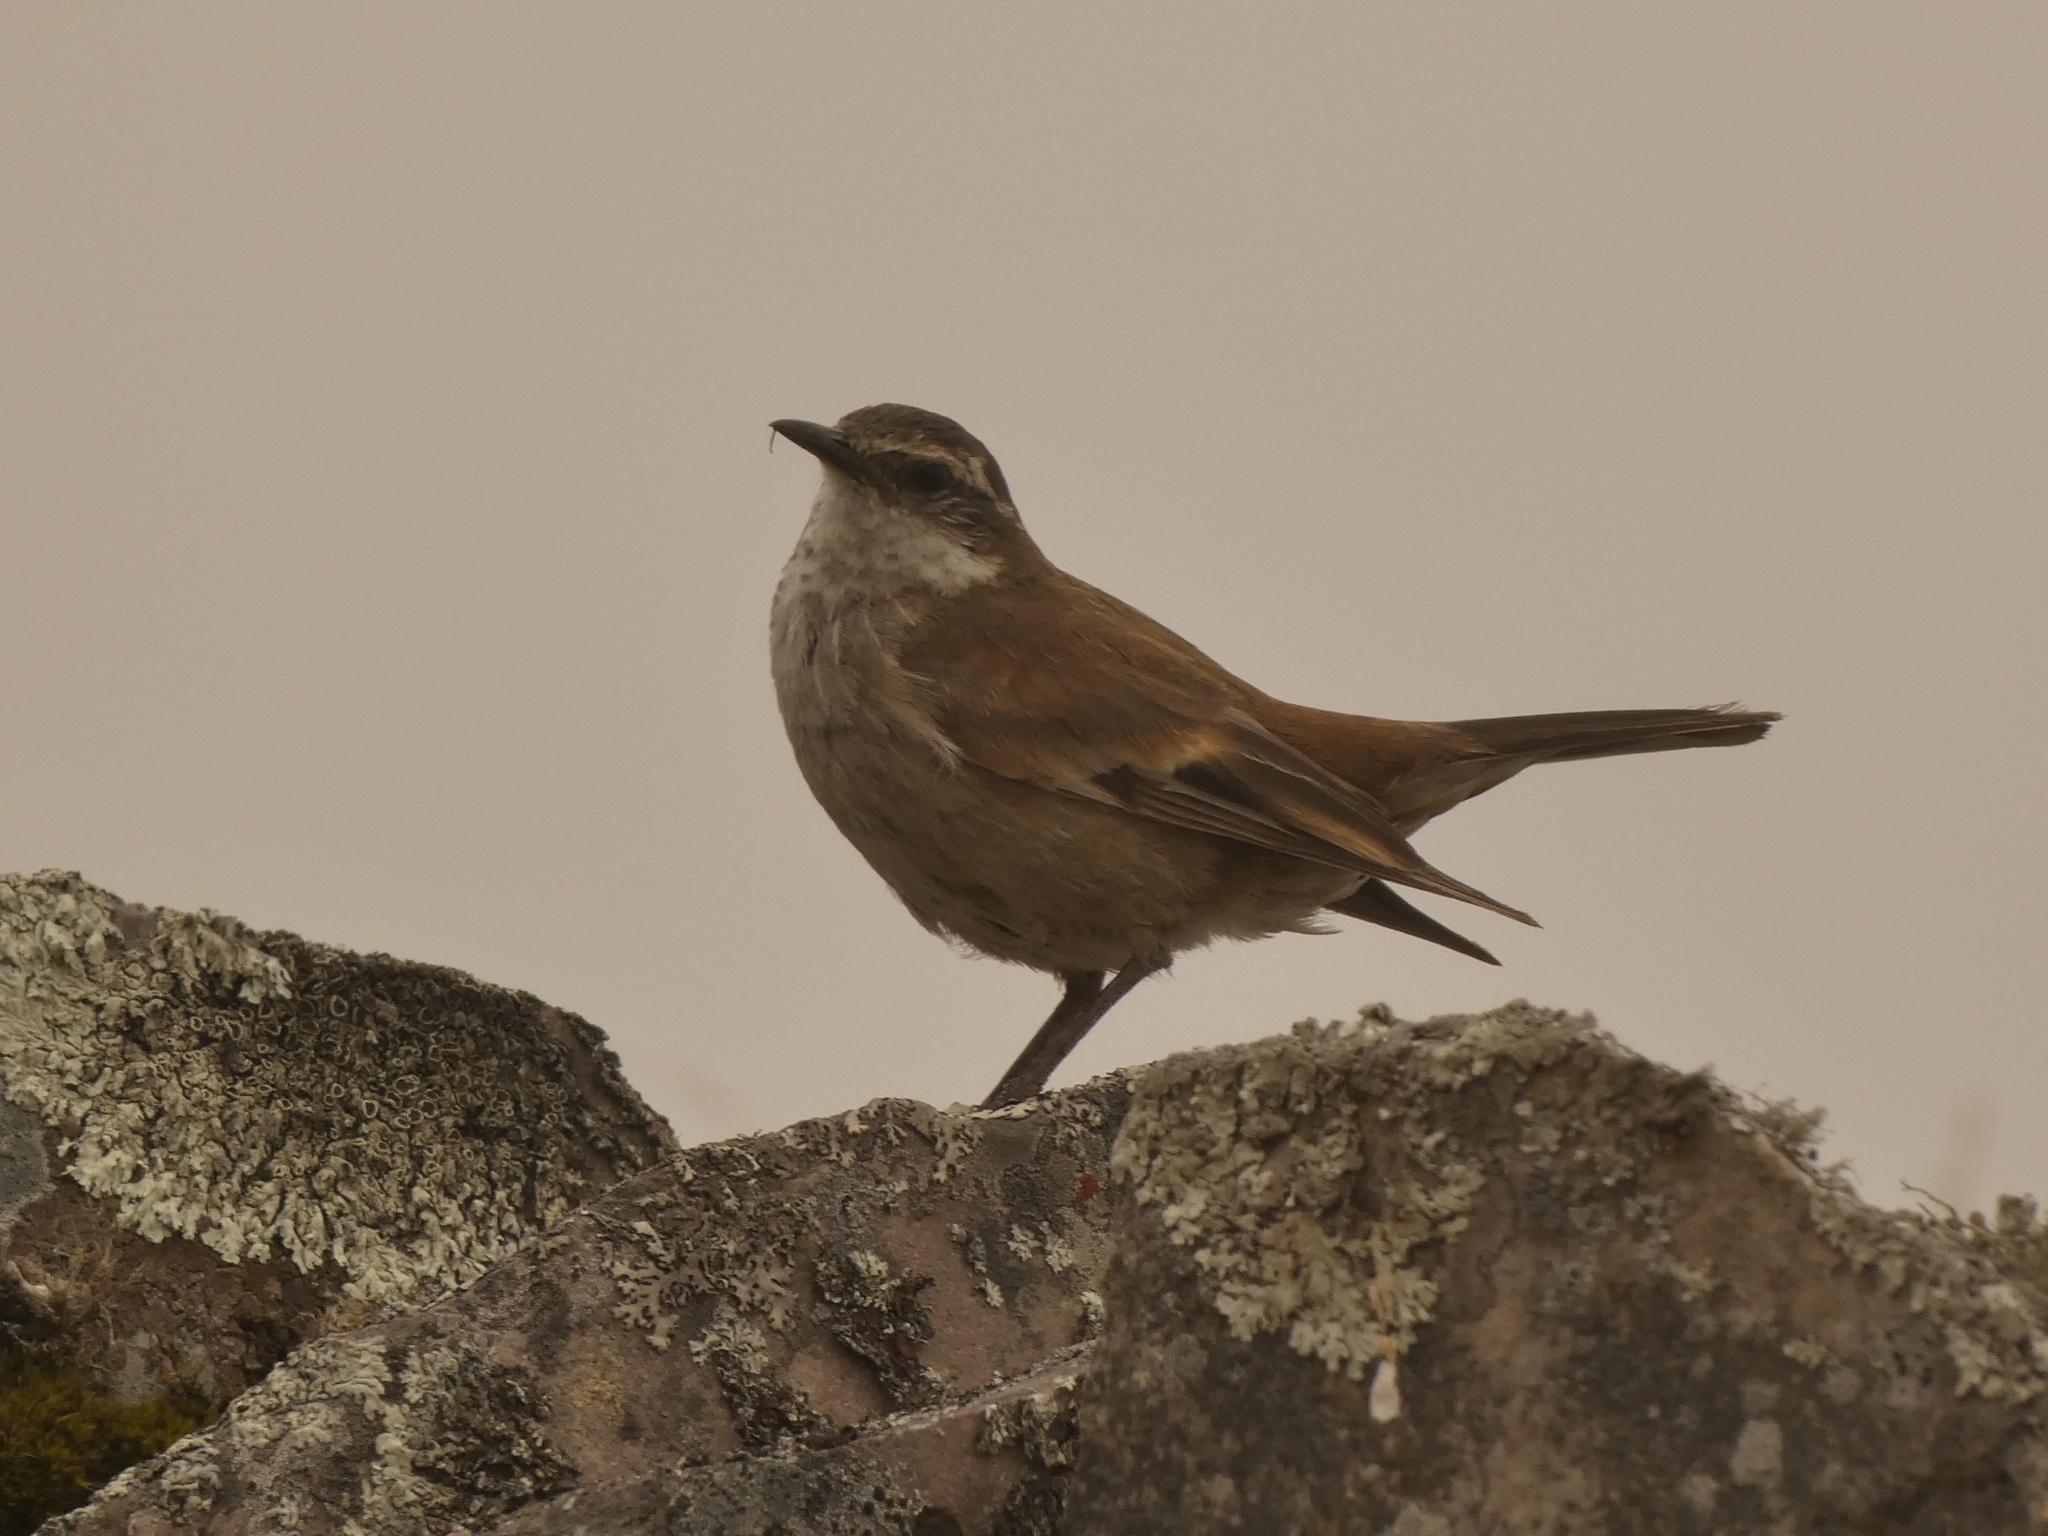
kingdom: Animalia
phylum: Chordata
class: Aves
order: Passeriformes
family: Furnariidae
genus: Cinclodes
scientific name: Cinclodes fuscus
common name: Buff-winged cinclodes
